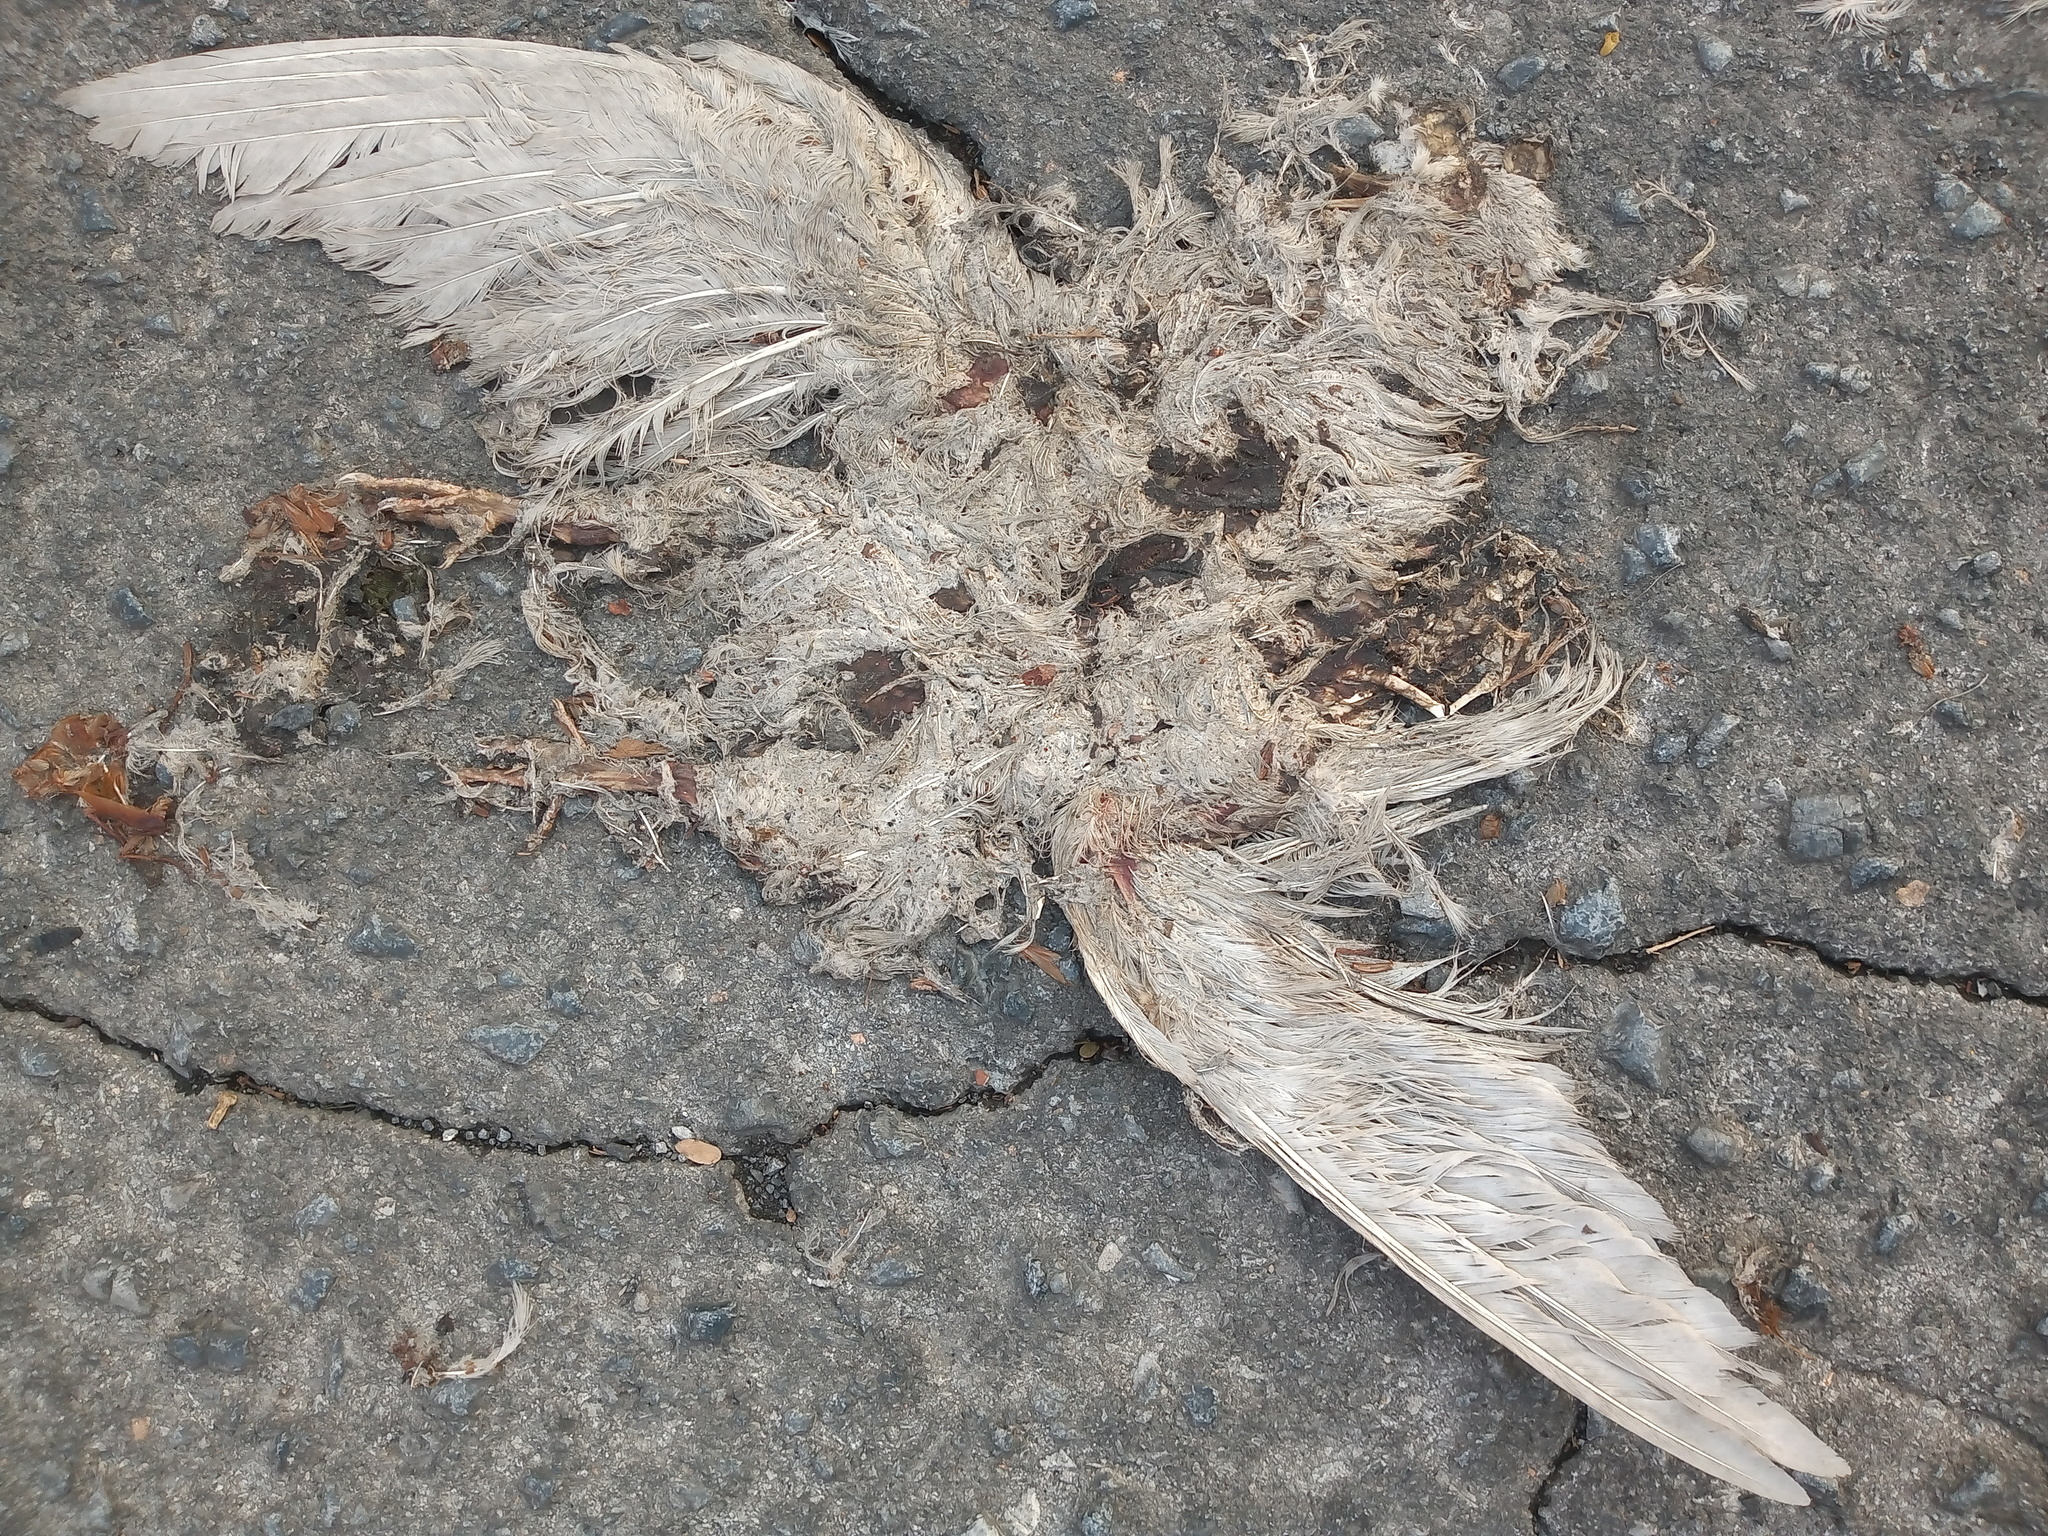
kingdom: Animalia
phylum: Chordata
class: Aves
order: Columbiformes
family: Columbidae
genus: Columba
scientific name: Columba livia
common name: Rock pigeon
